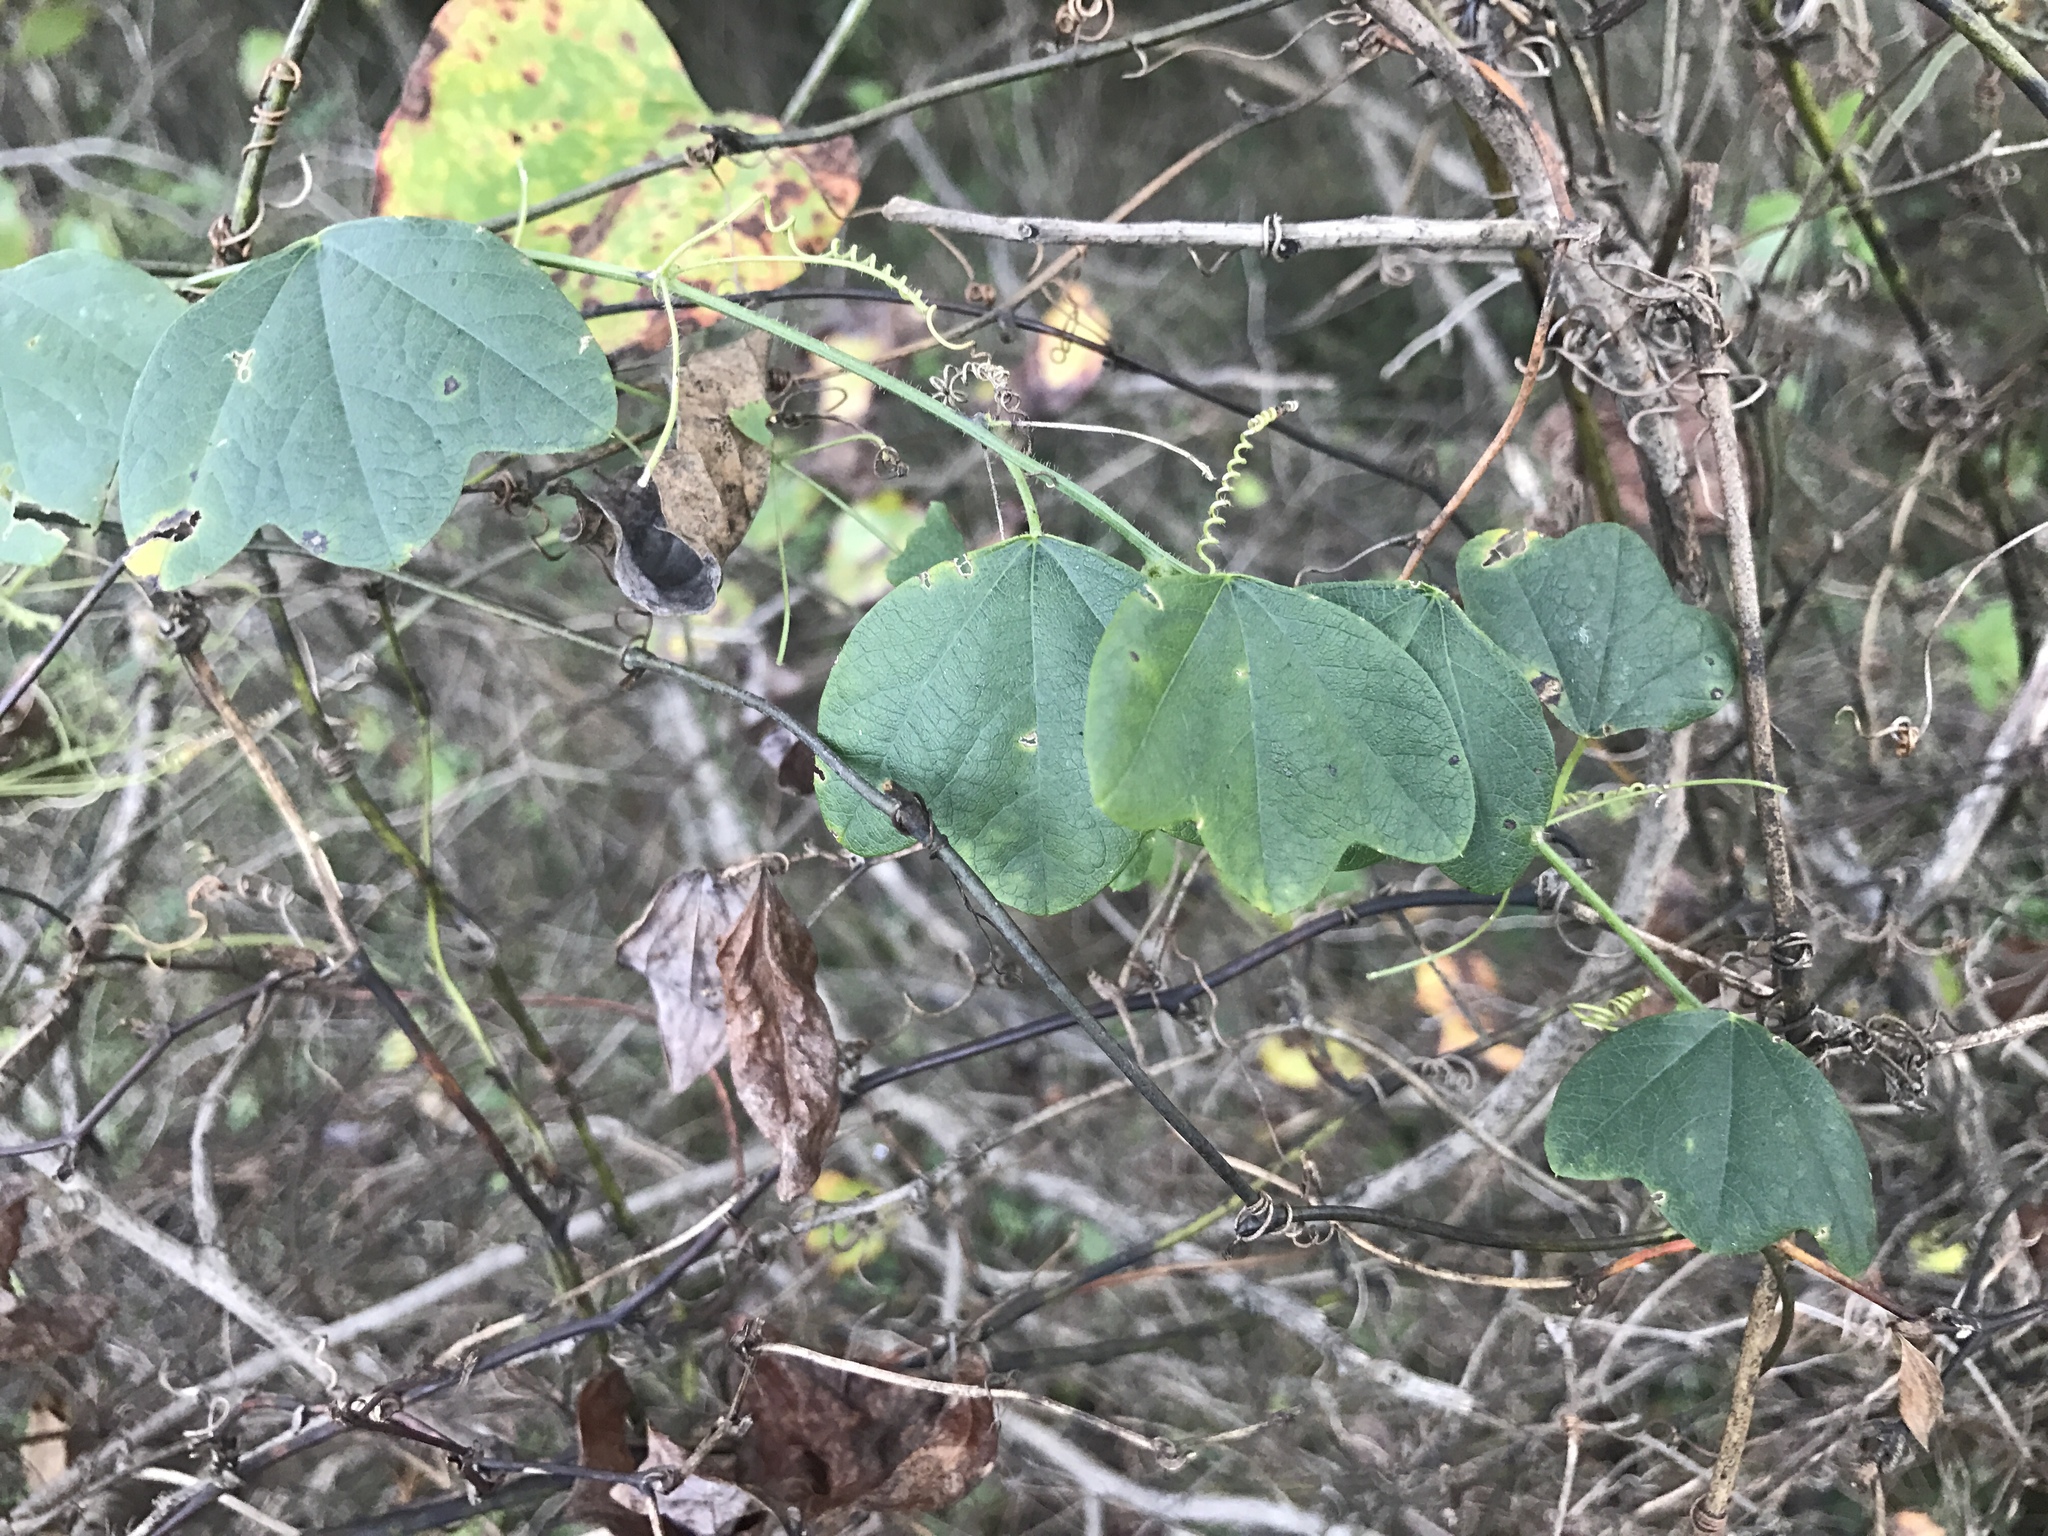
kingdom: Plantae
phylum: Tracheophyta
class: Magnoliopsida
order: Malpighiales
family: Passifloraceae
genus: Passiflora
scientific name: Passiflora lutea
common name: Yellow passionflower
